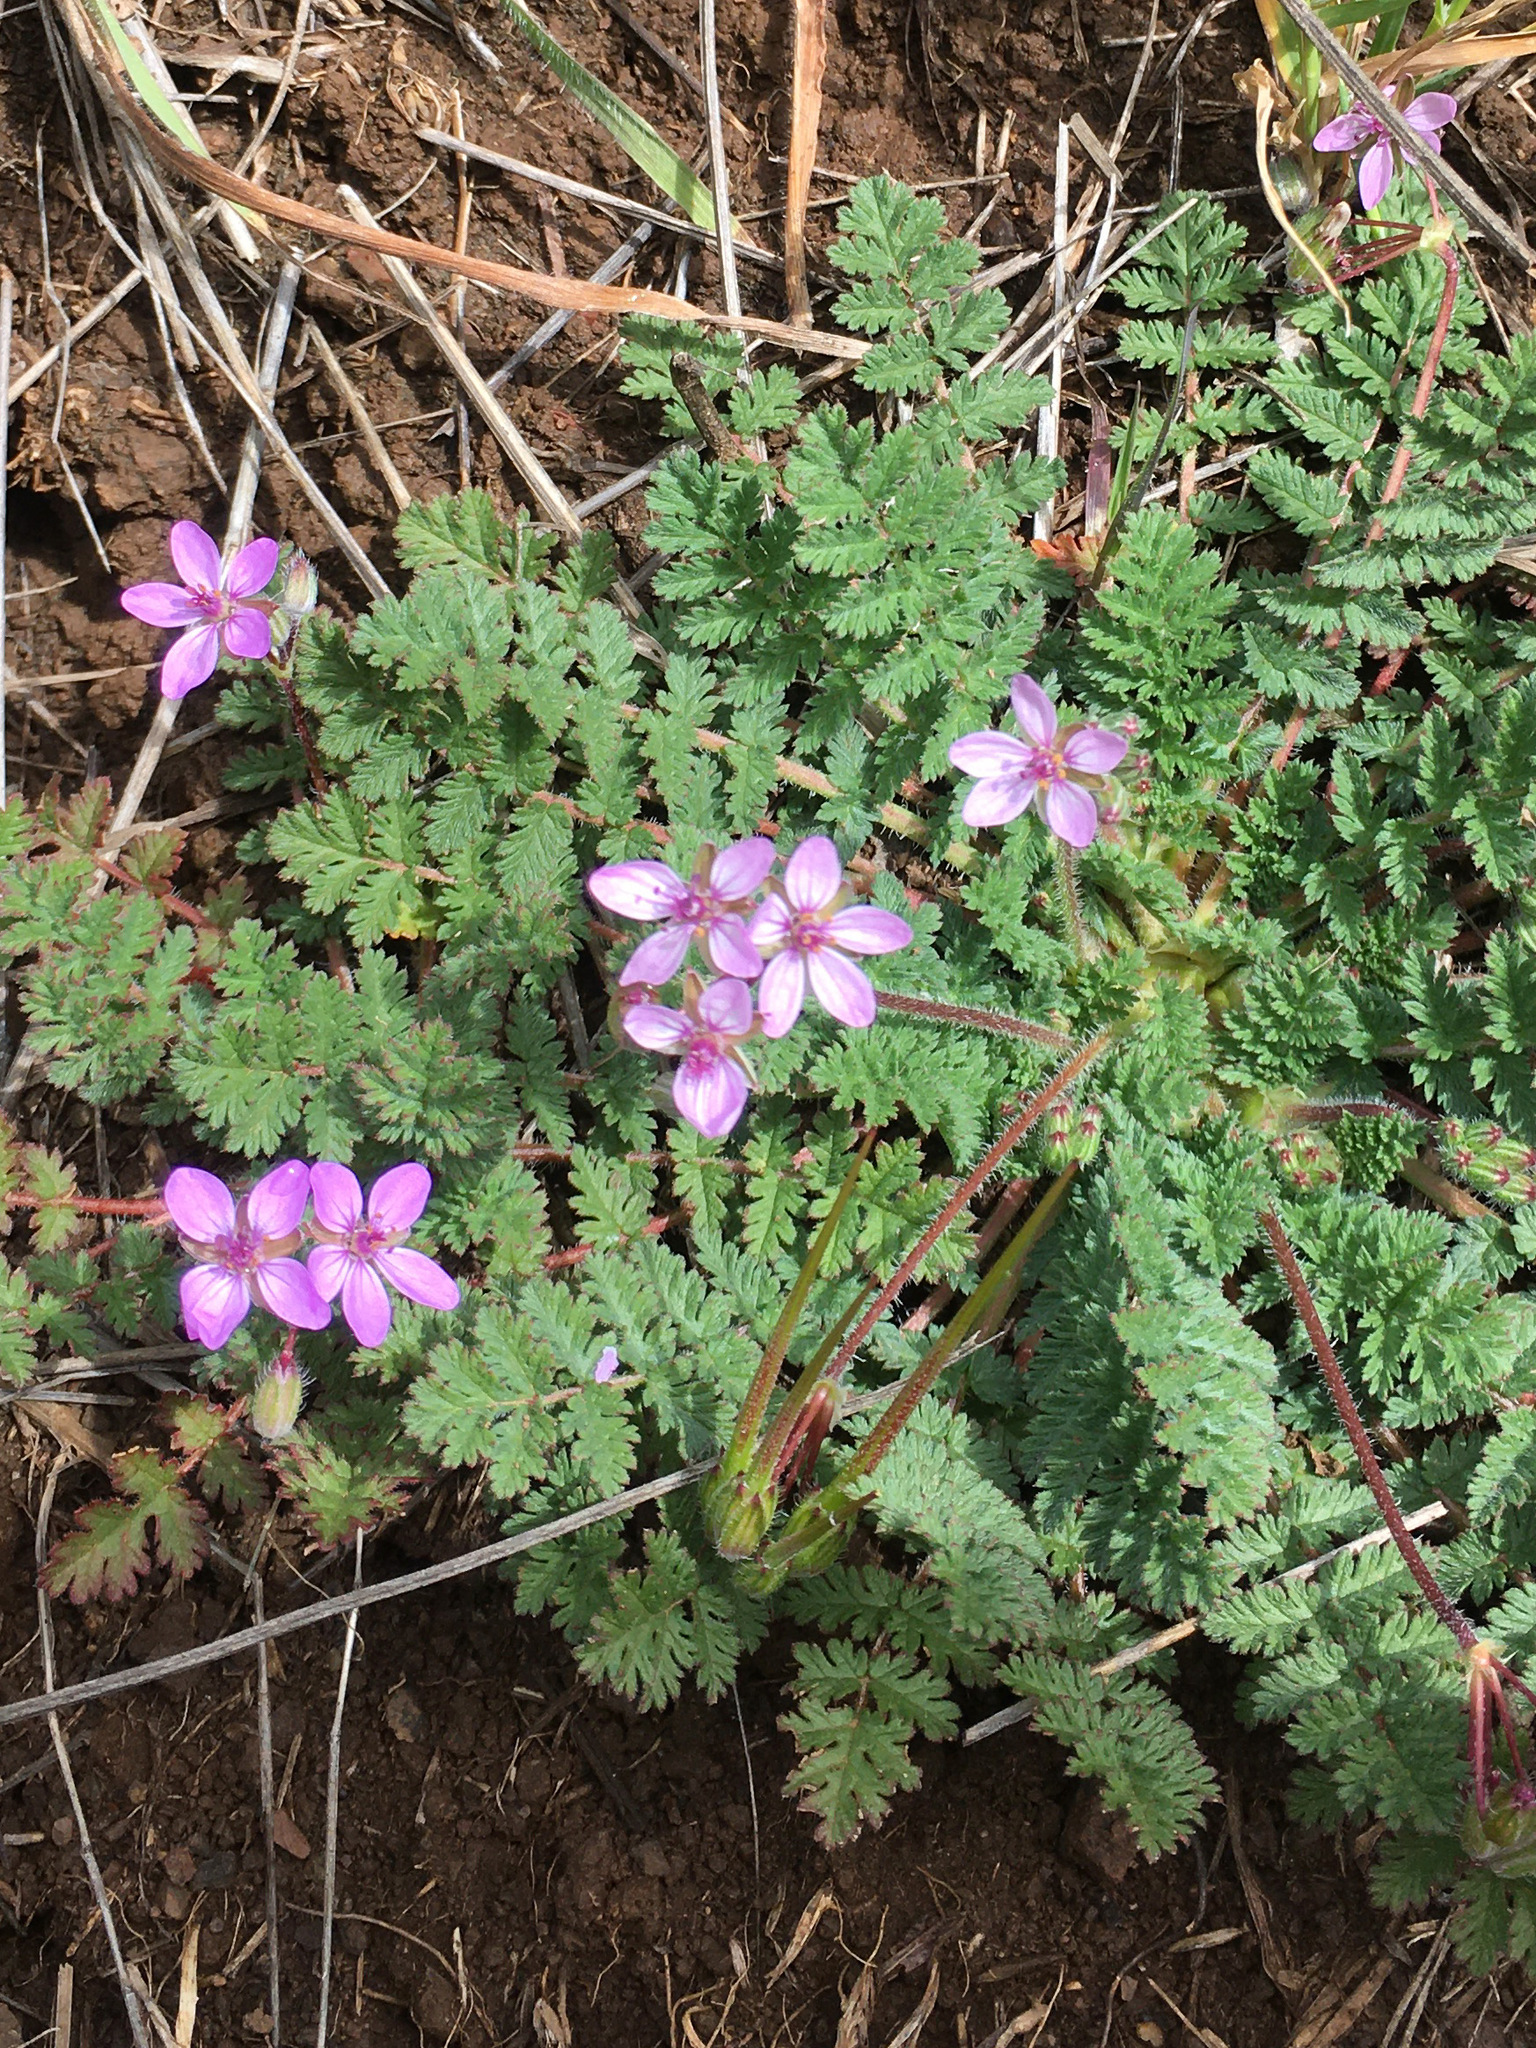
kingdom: Plantae
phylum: Tracheophyta
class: Magnoliopsida
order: Geraniales
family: Geraniaceae
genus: Erodium
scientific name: Erodium cicutarium
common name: Common stork's-bill
